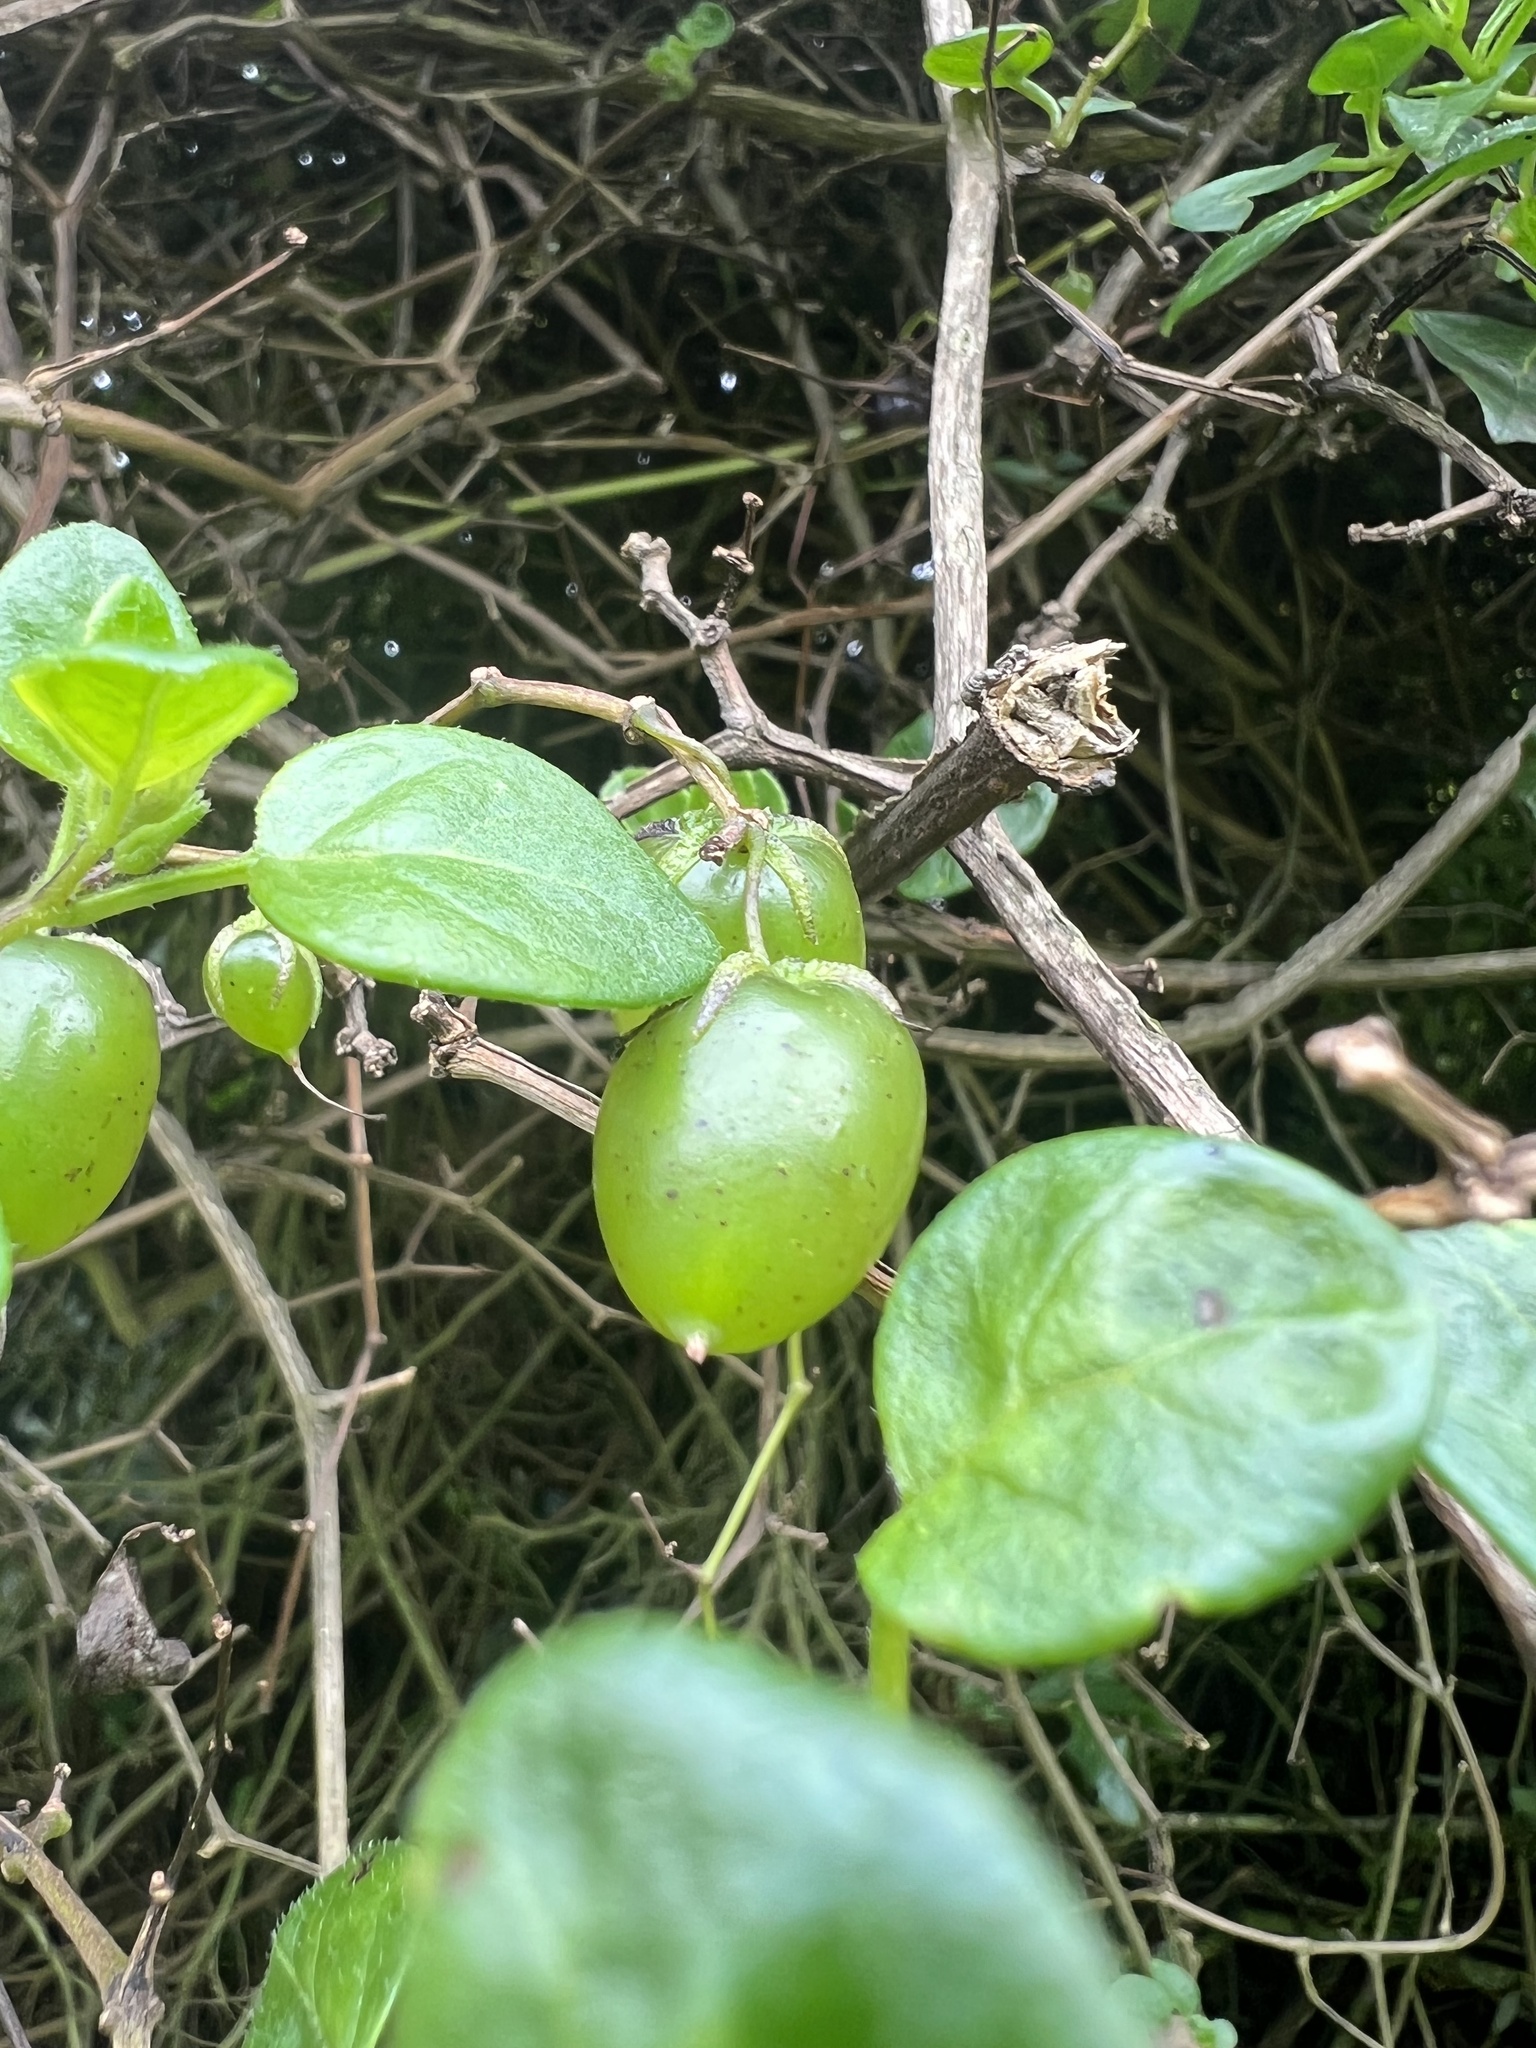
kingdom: Plantae
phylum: Tracheophyta
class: Magnoliopsida
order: Solanales
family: Solanaceae
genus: Salpichroa
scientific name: Salpichroa tristis
